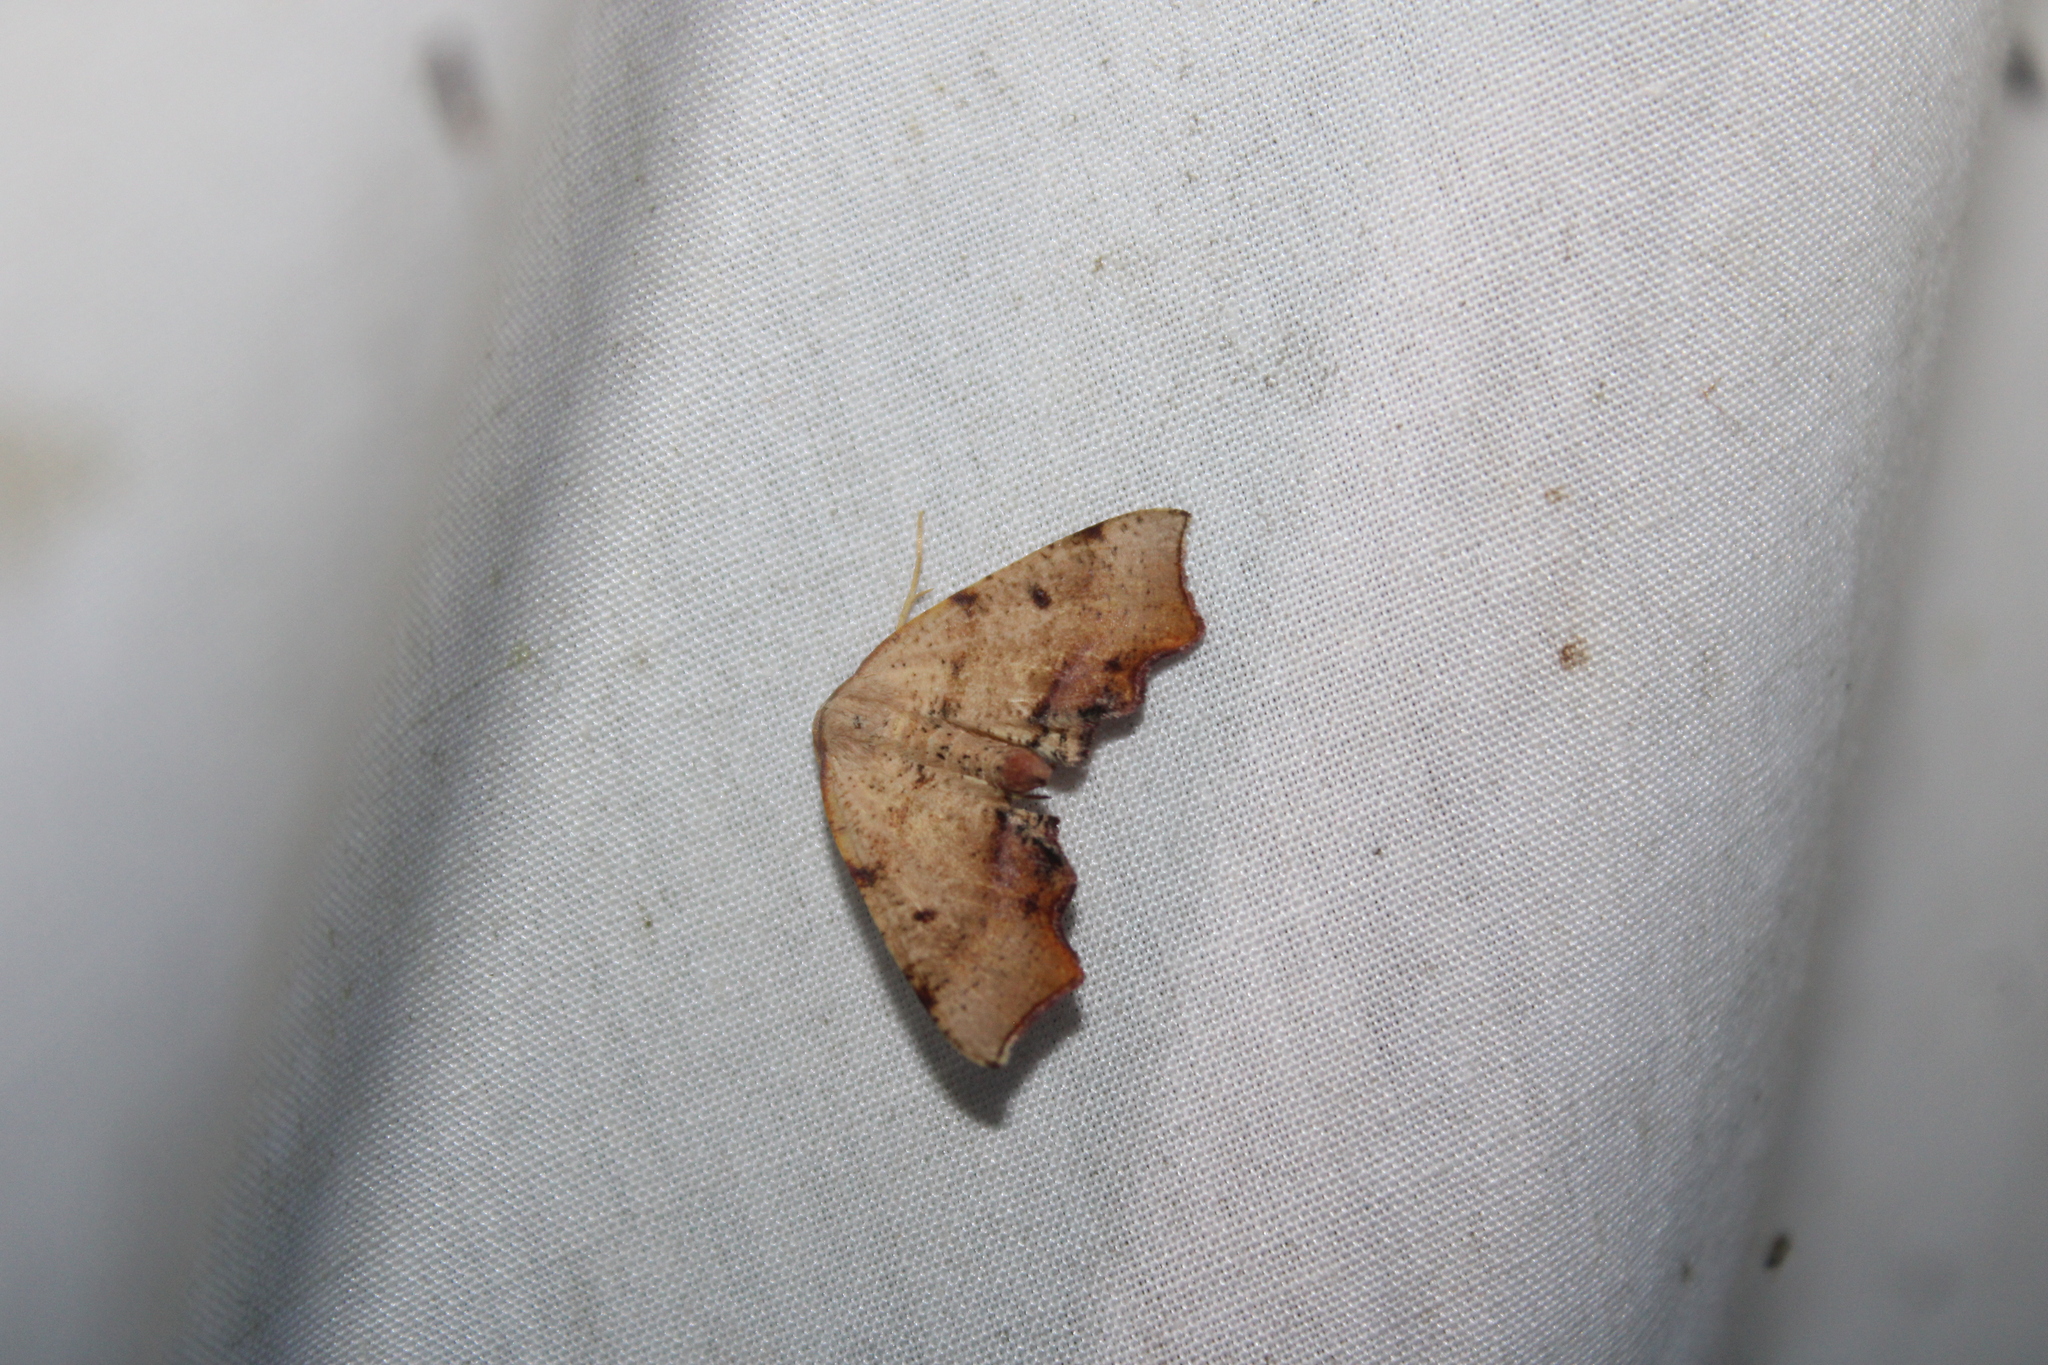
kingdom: Animalia
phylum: Arthropoda
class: Insecta
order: Lepidoptera
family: Geometridae
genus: Plagodis
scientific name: Plagodis fervidaria
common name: Fervid plagodis
